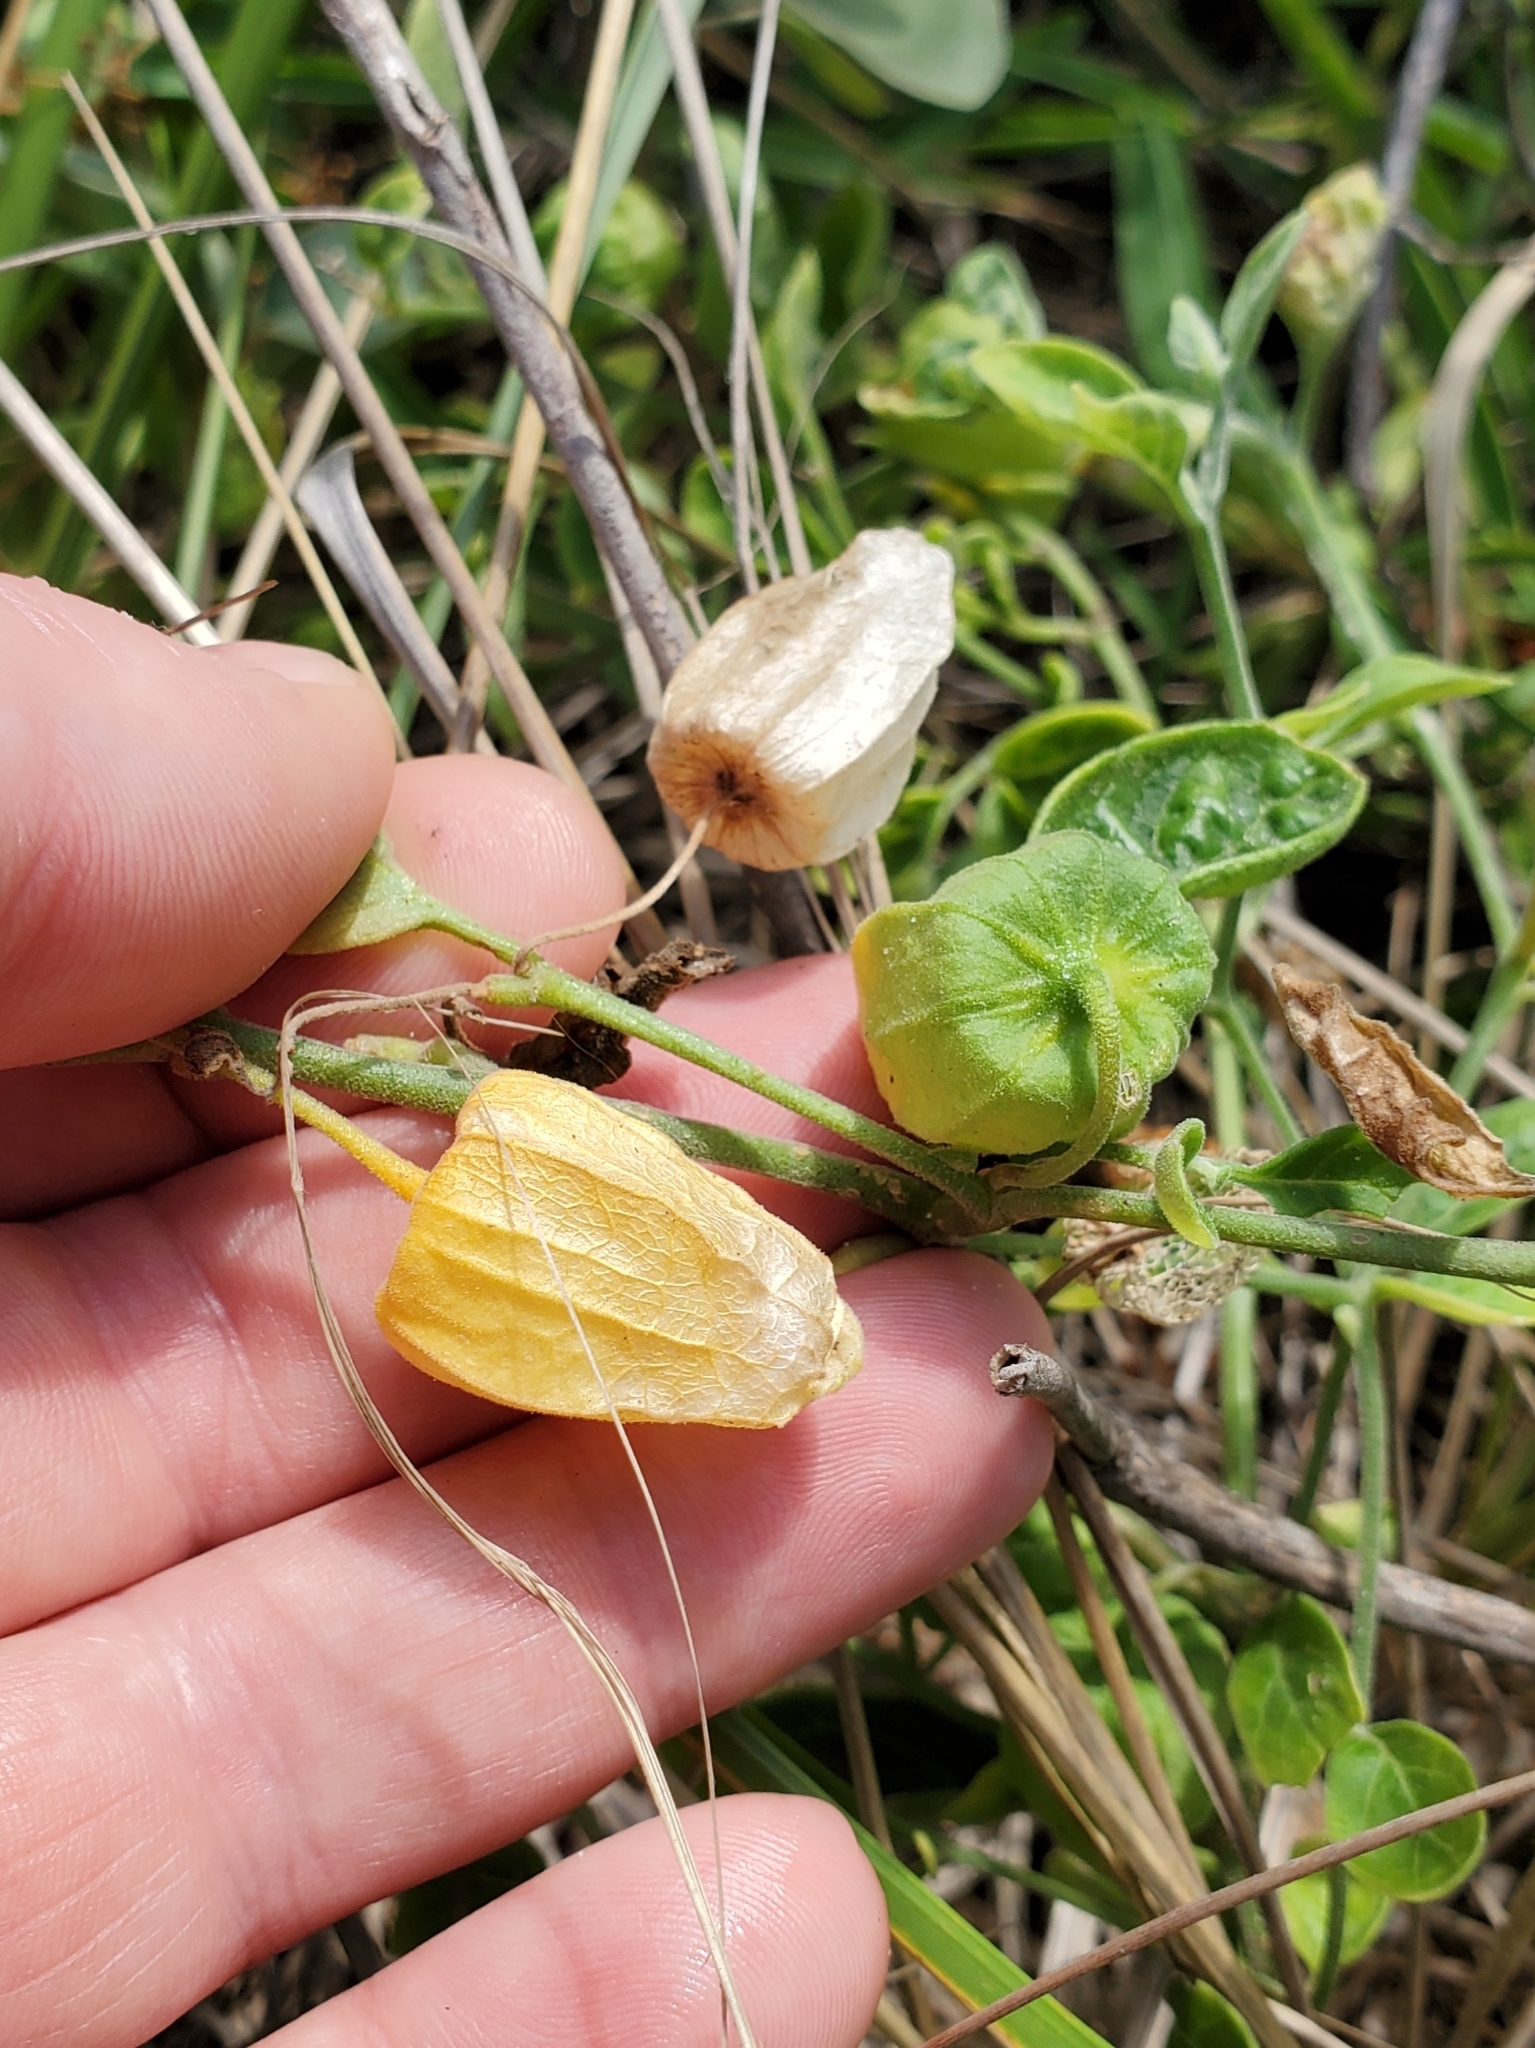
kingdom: Plantae
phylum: Tracheophyta
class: Magnoliopsida
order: Solanales
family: Solanaceae
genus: Physalis
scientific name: Physalis walteri
